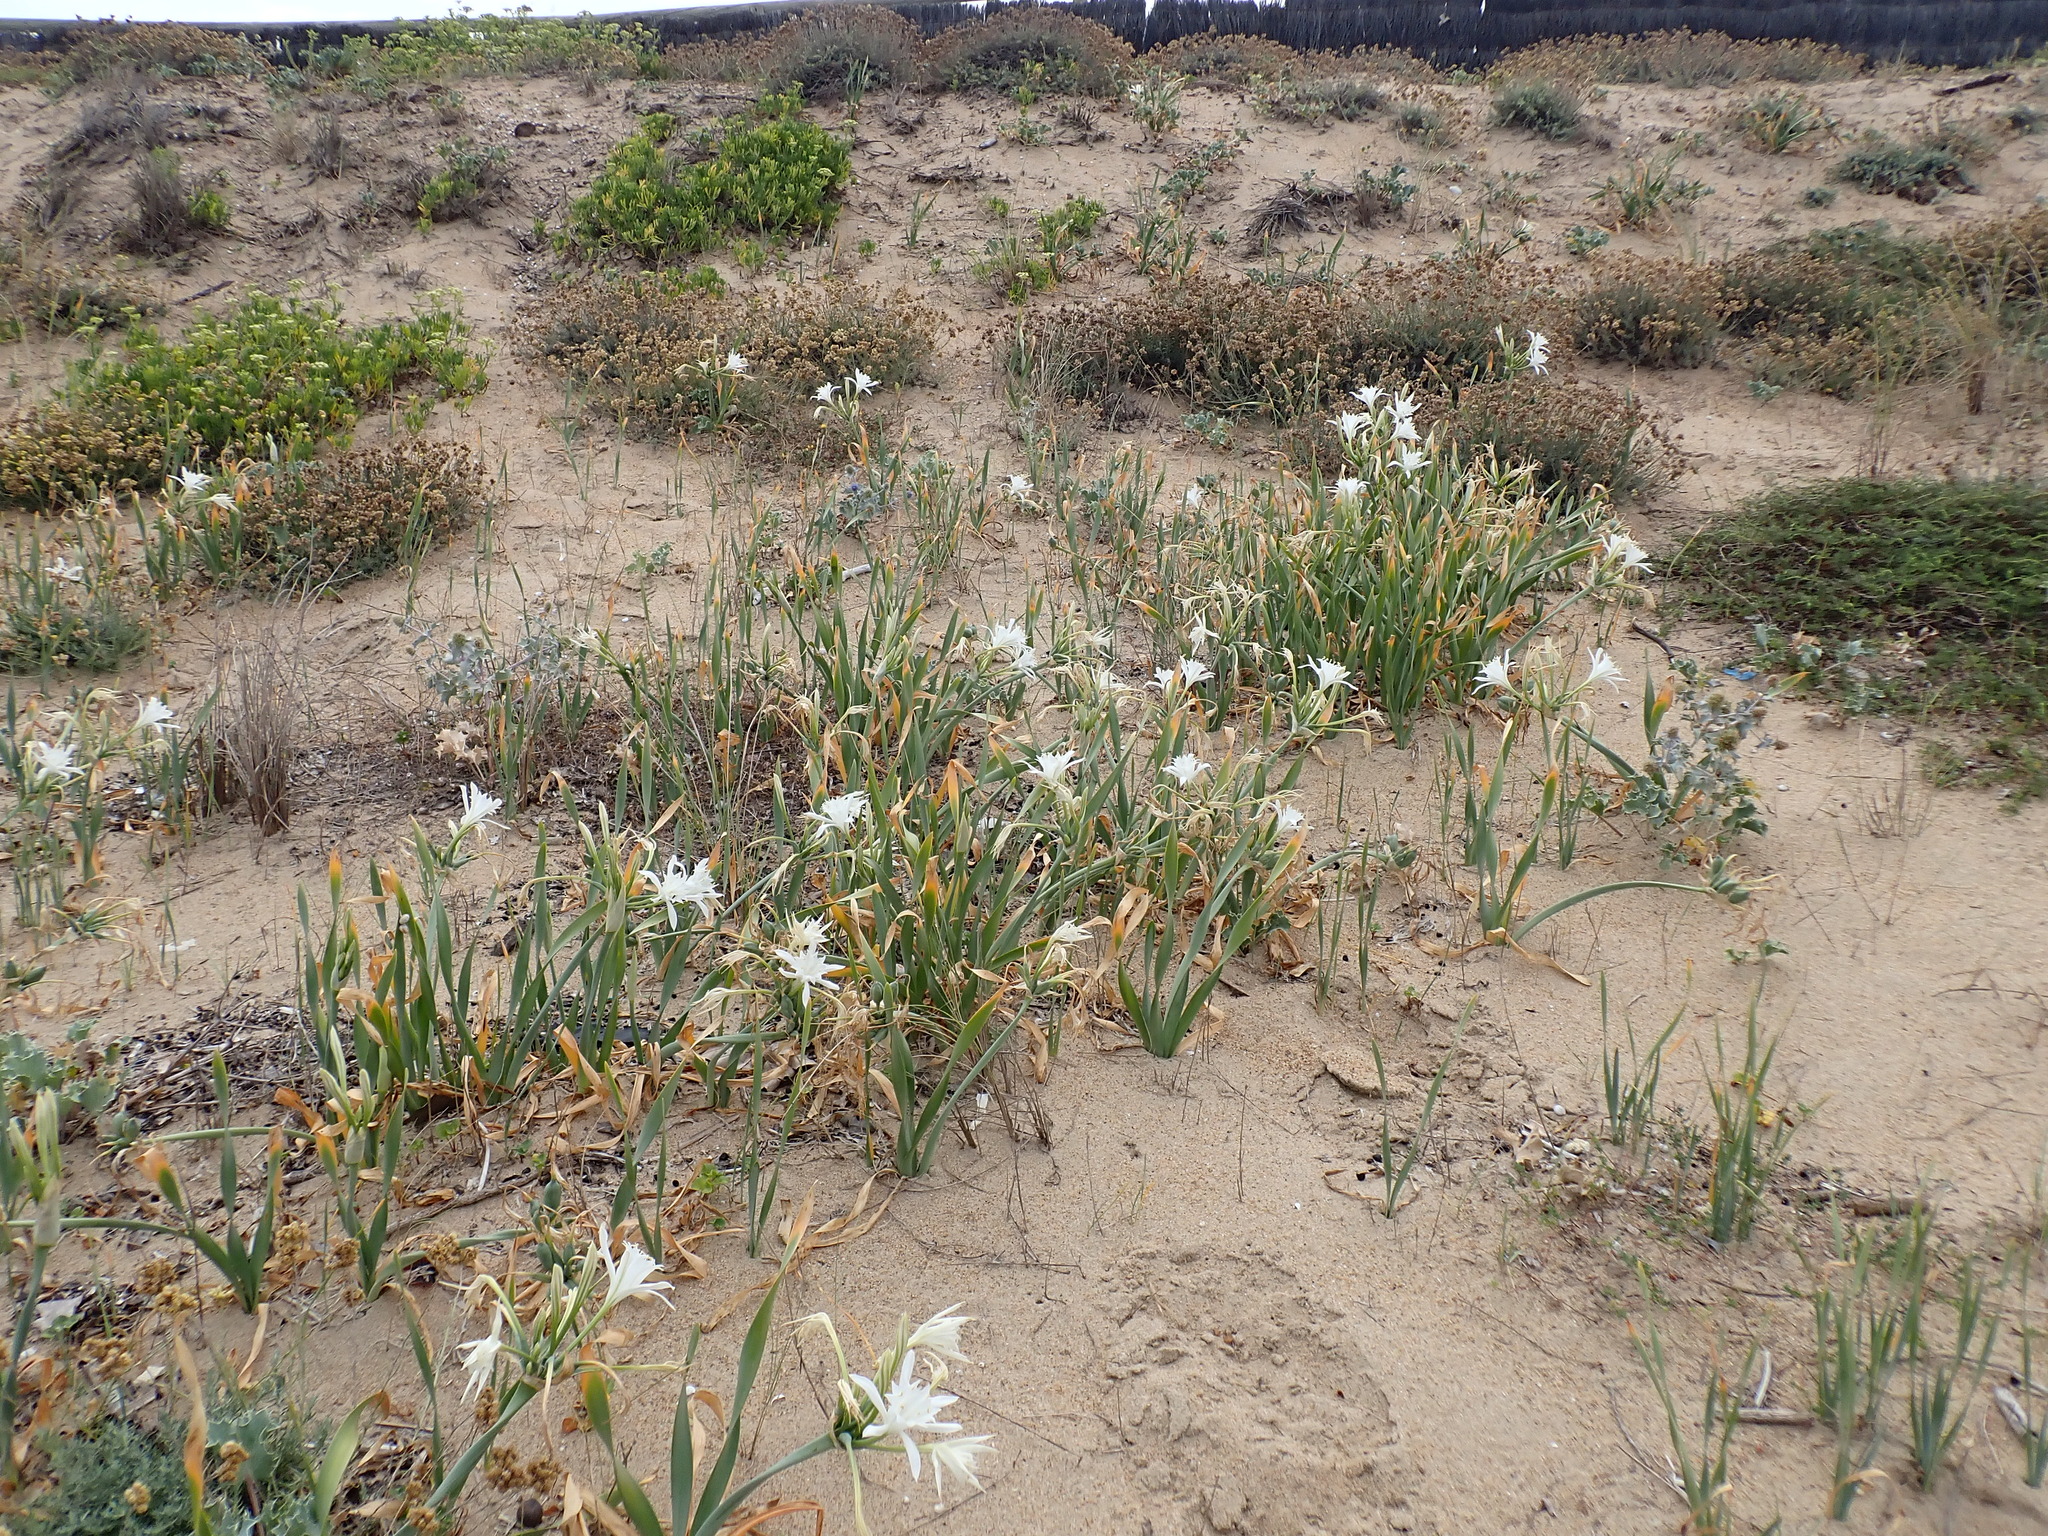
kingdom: Plantae
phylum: Tracheophyta
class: Liliopsida
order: Asparagales
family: Amaryllidaceae
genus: Pancratium
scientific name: Pancratium maritimum
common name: Sea-daffodil
